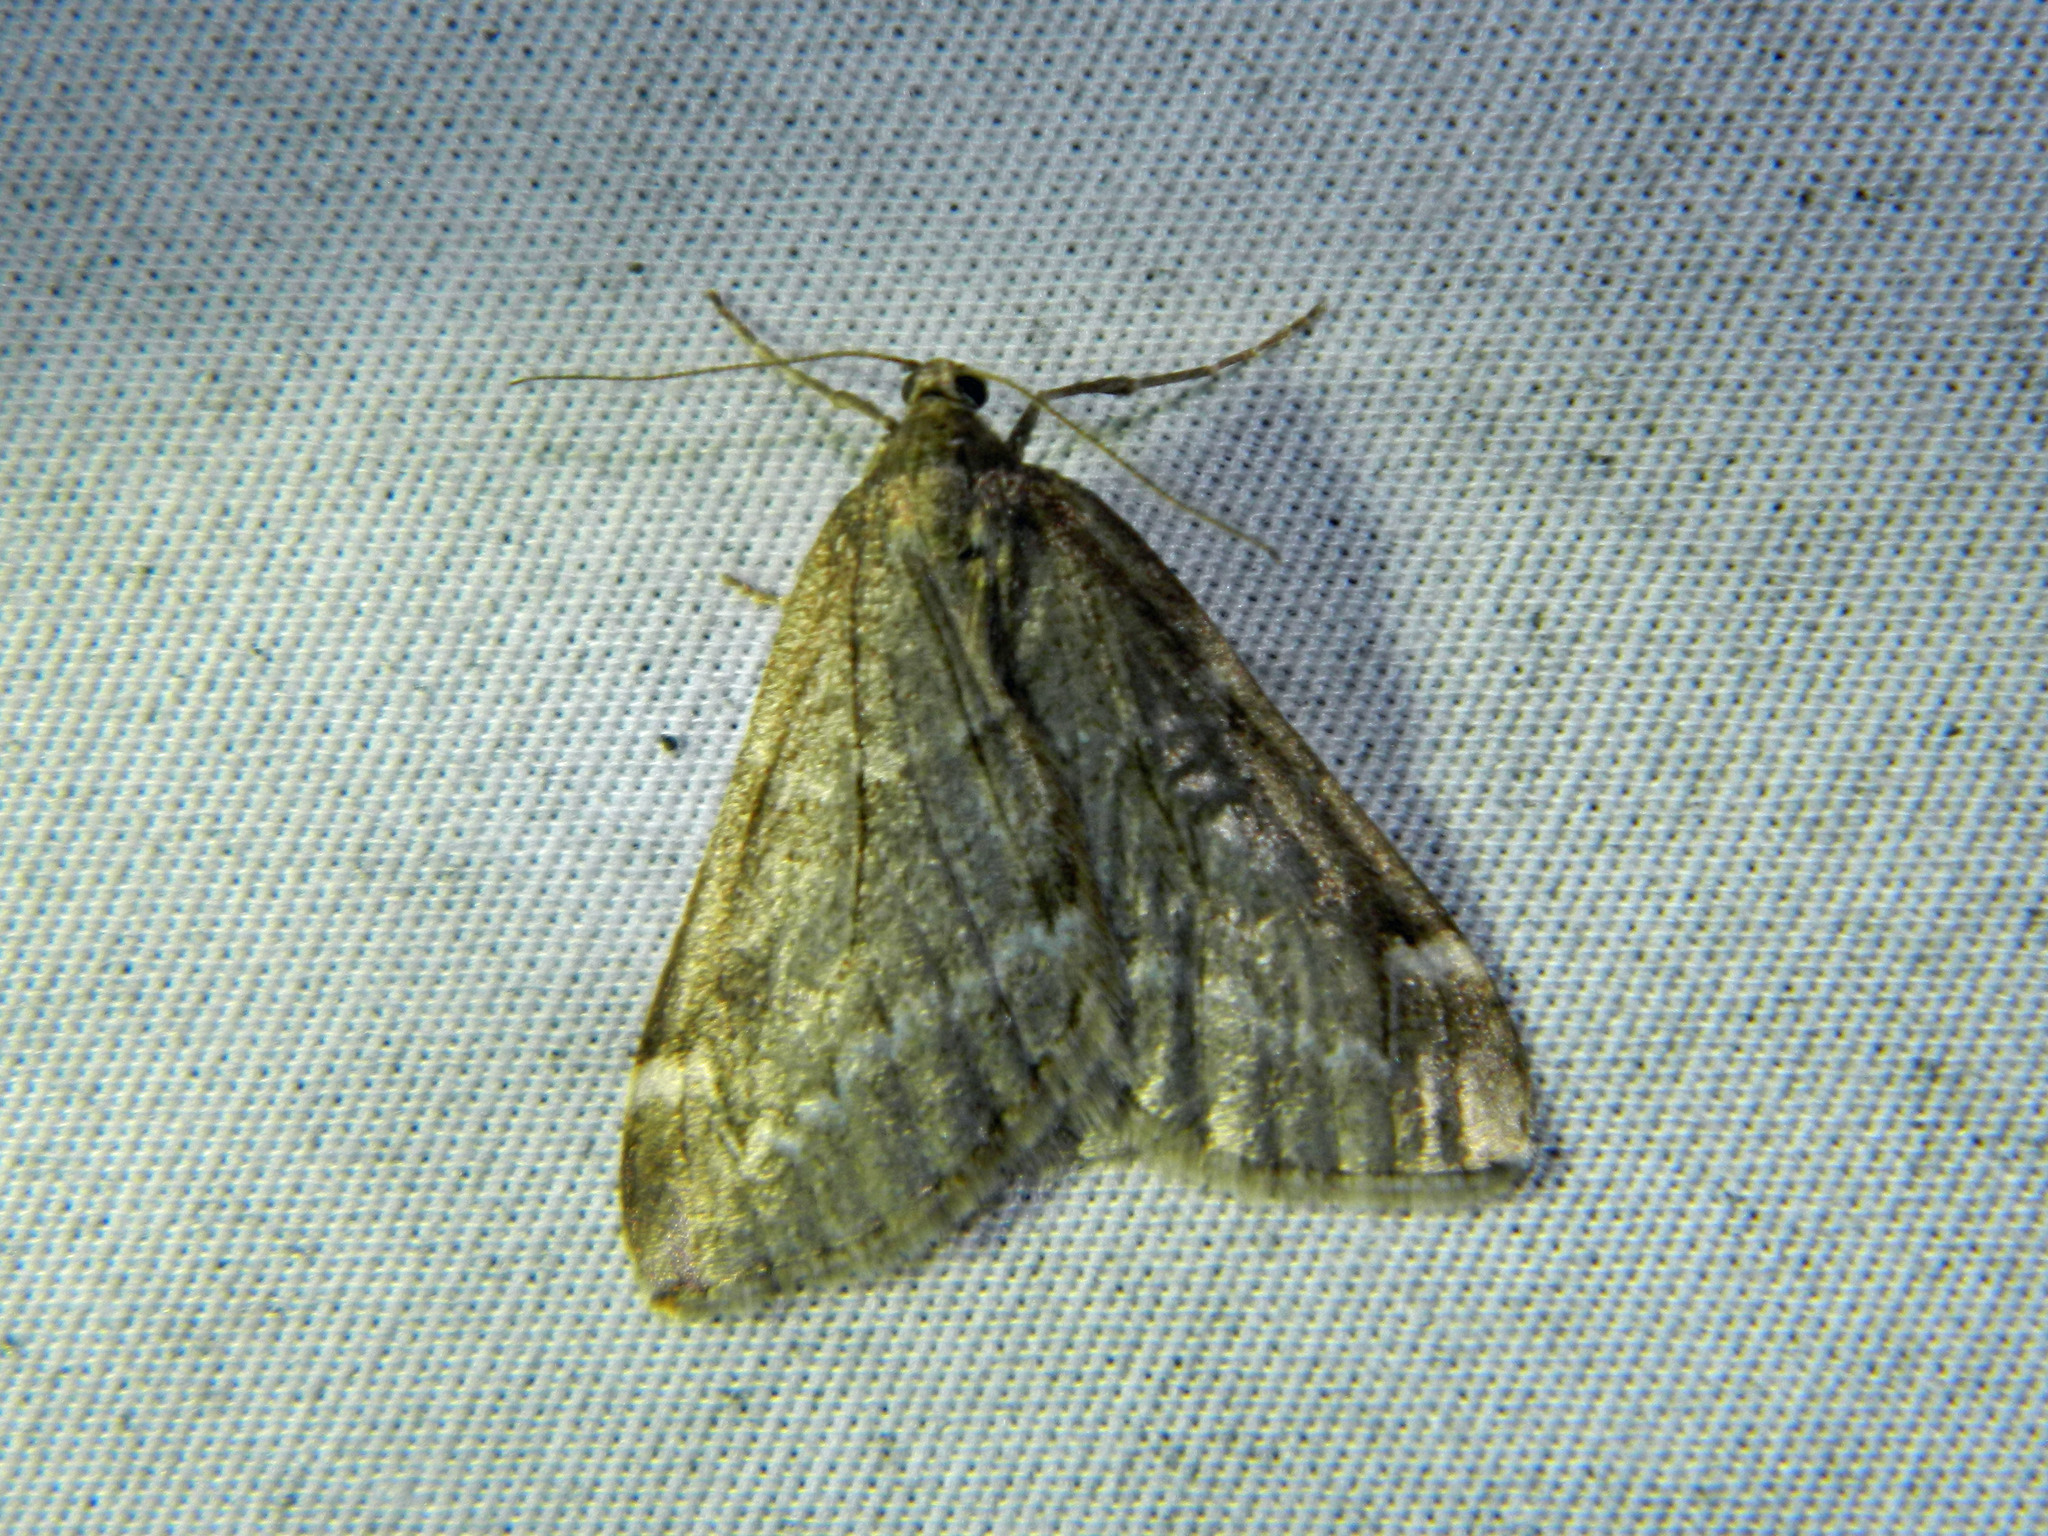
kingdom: Animalia
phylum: Arthropoda
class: Insecta
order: Lepidoptera
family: Geometridae
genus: Alsophila
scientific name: Alsophila pometaria
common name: Fall cankerworm
